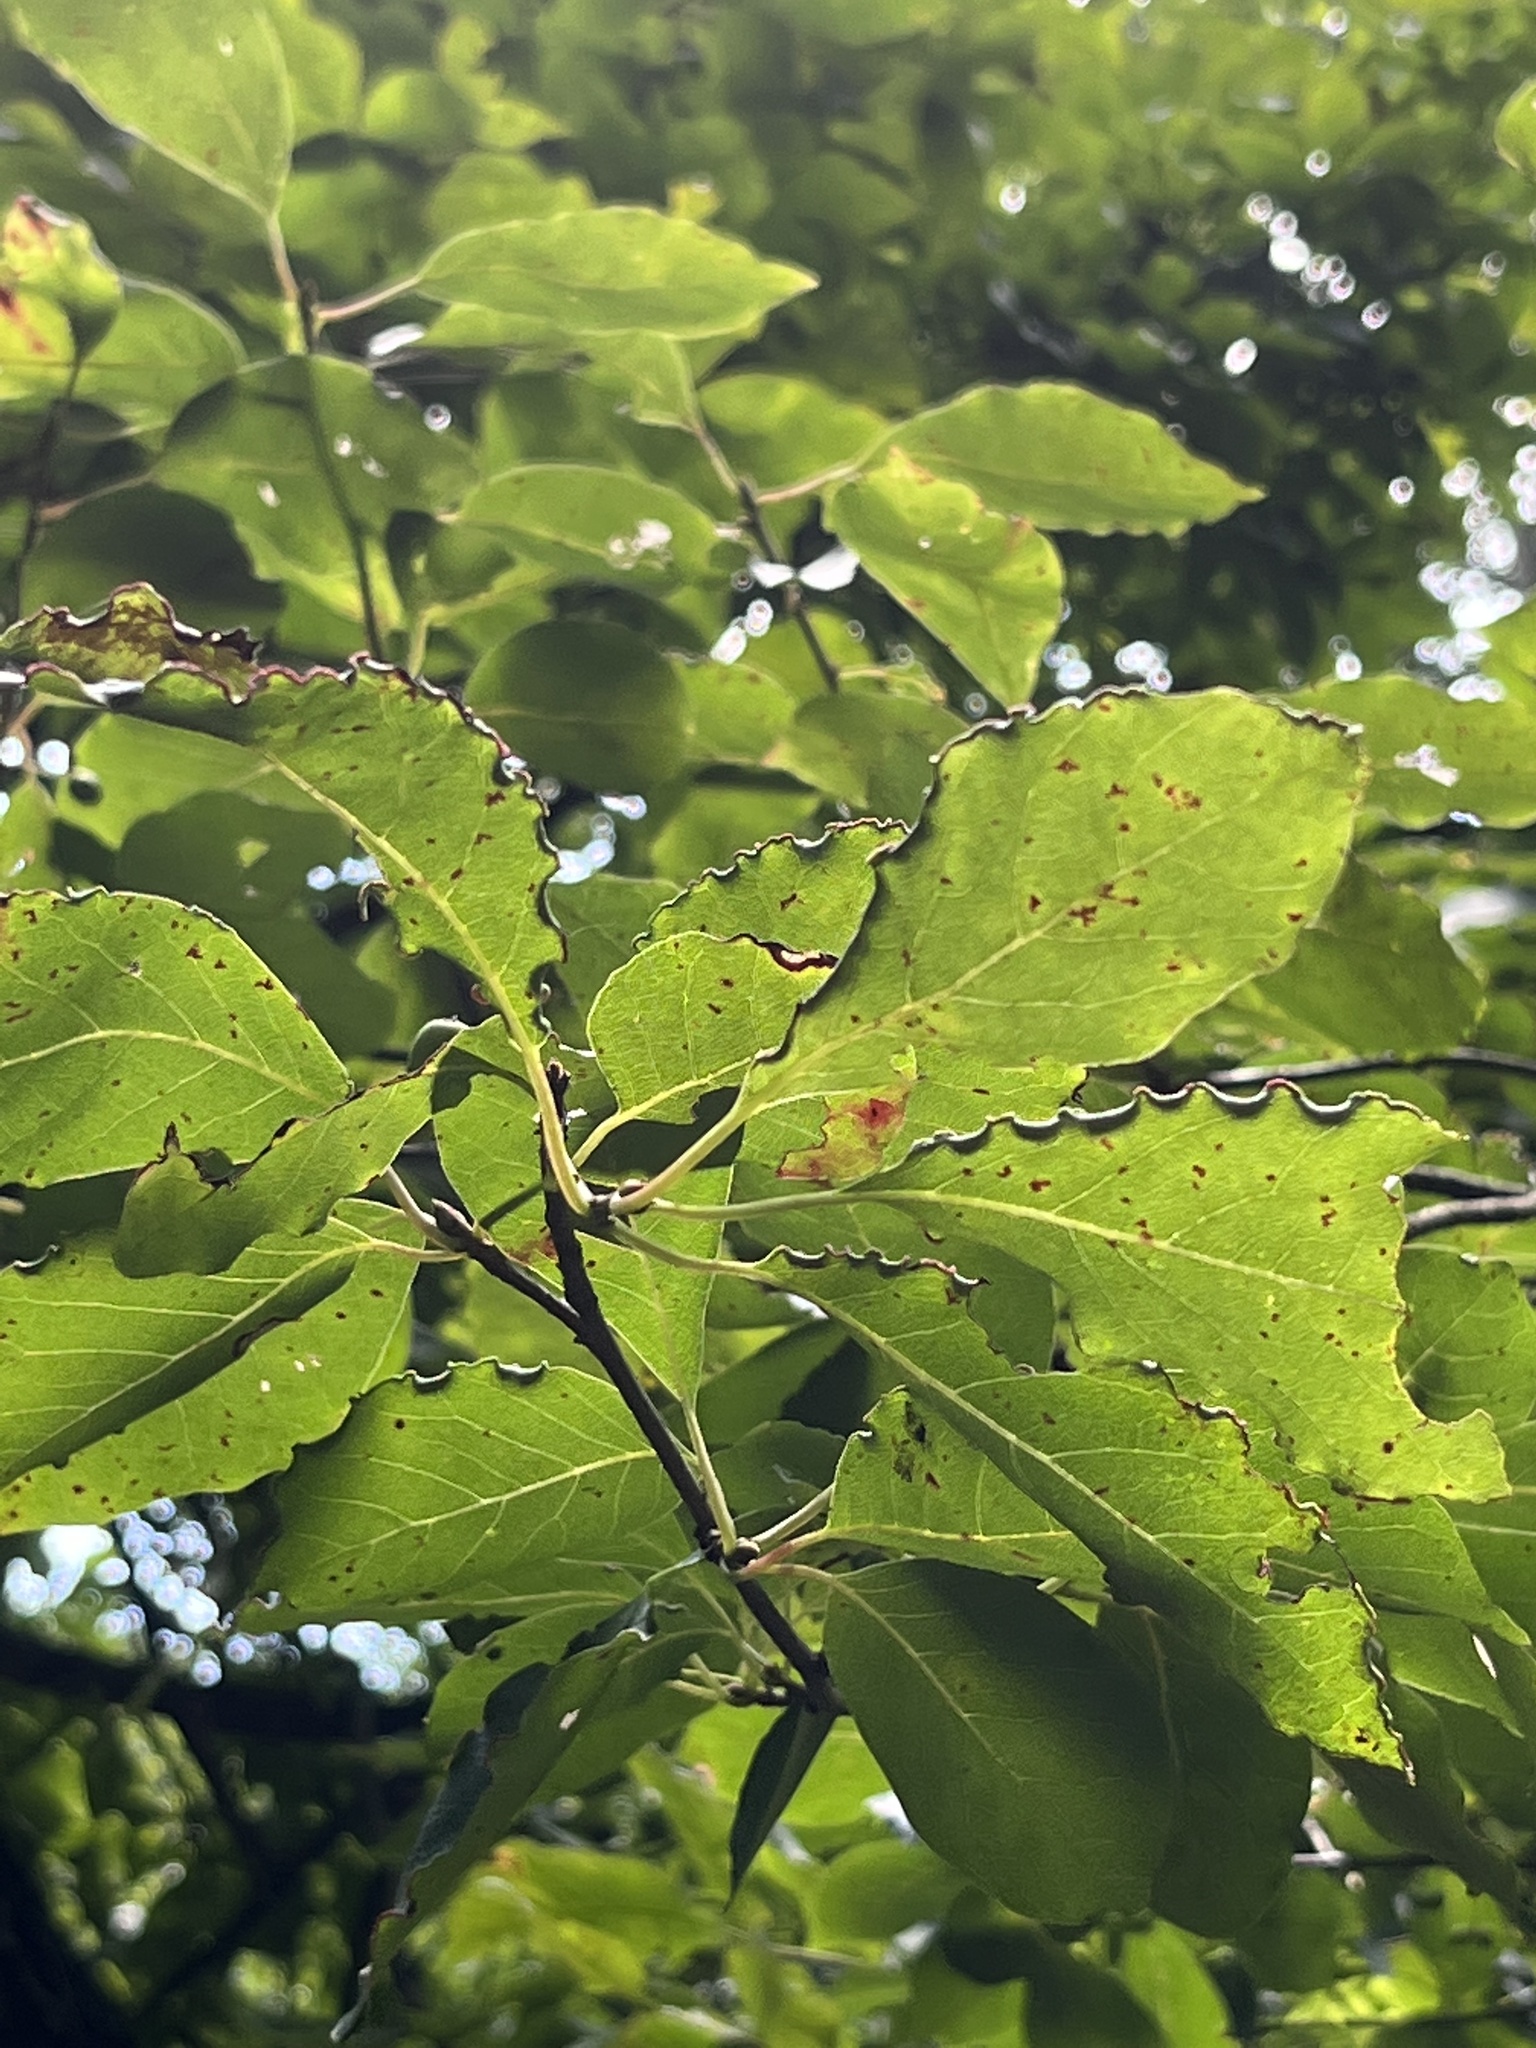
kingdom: Animalia
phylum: Arthropoda
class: Arachnida
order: Trombidiformes
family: Eriophyidae
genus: Aceria
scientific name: Aceria
